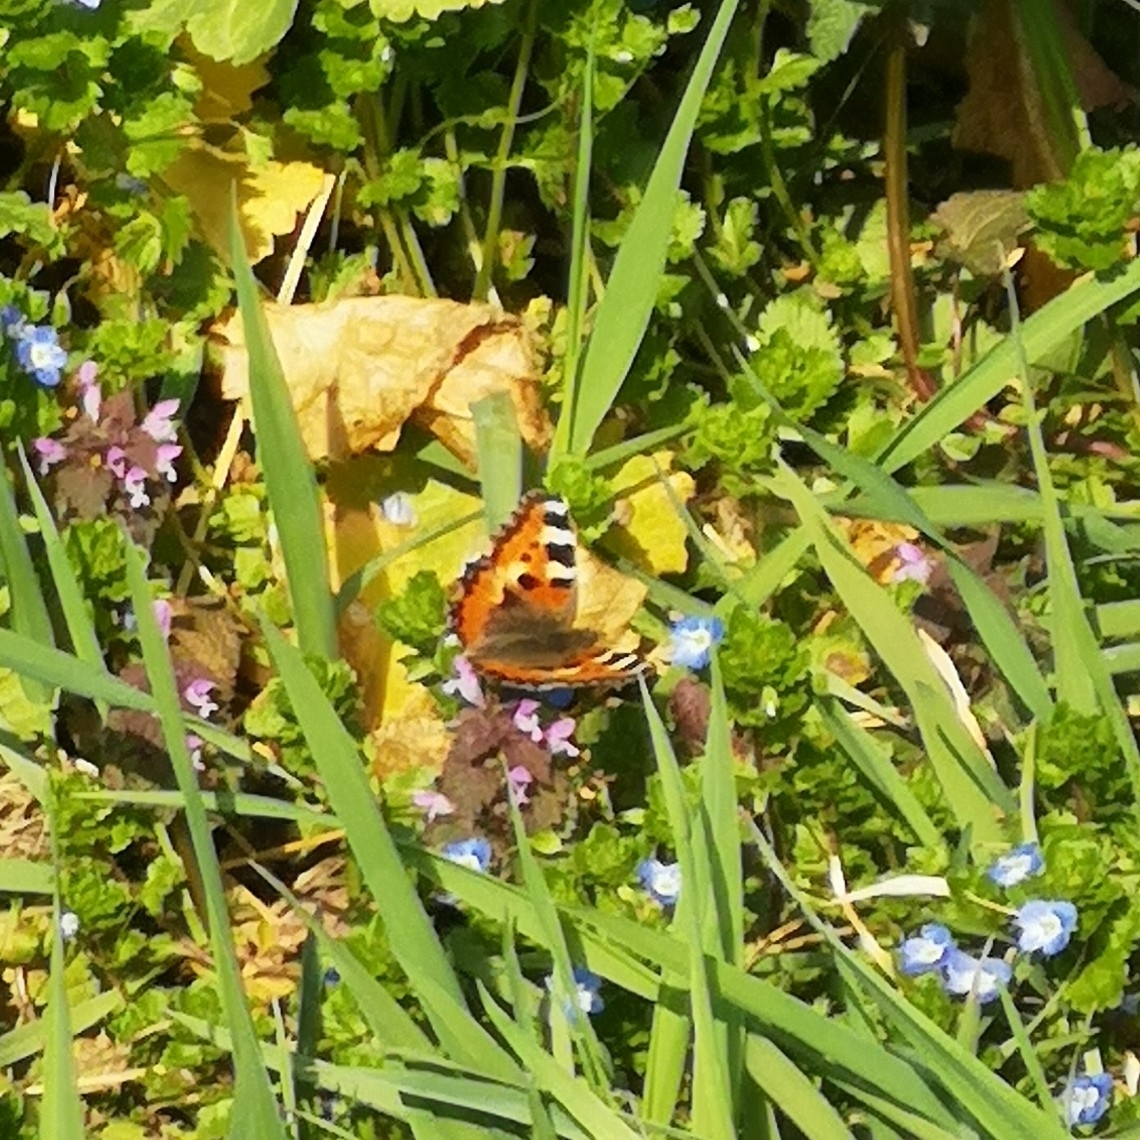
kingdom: Animalia
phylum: Arthropoda
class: Insecta
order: Lepidoptera
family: Nymphalidae
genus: Aglais
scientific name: Aglais urticae
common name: Small tortoiseshell
